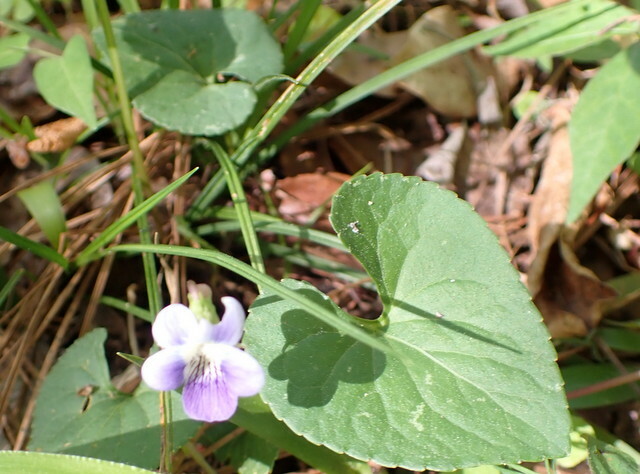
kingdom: Plantae
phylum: Tracheophyta
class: Magnoliopsida
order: Malpighiales
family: Violaceae
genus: Viola
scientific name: Viola floridana
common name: Florida violet
